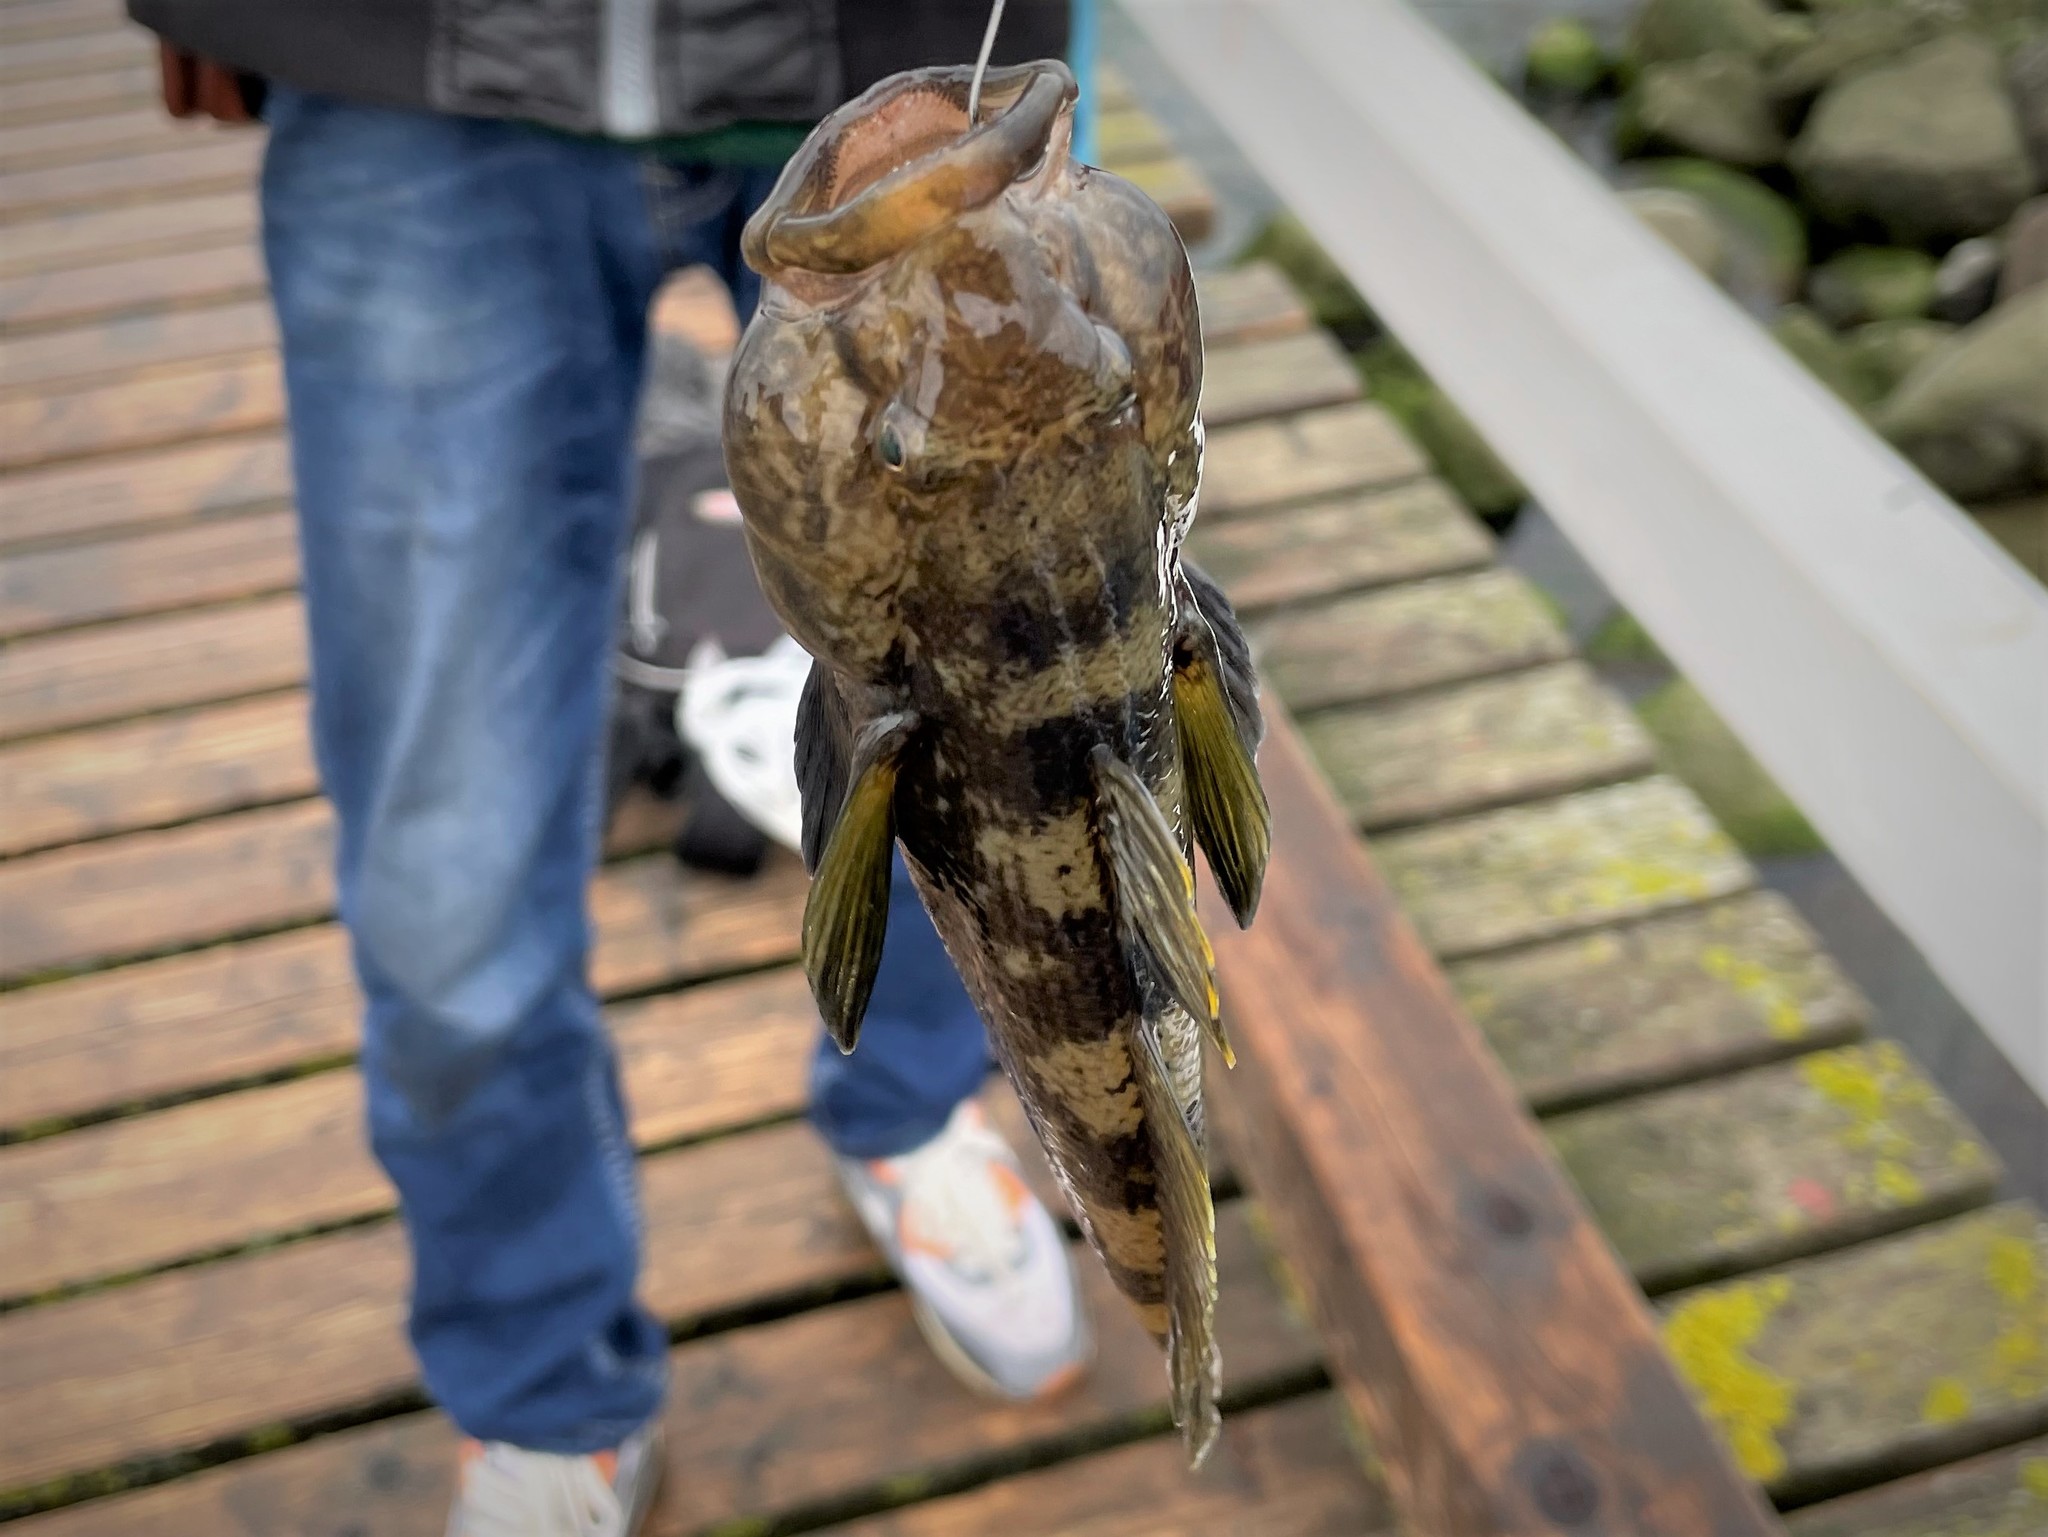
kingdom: Animalia
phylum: Chordata
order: Perciformes
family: Gobiidae
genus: Neogobius
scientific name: Neogobius melanostomus
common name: Round goby
